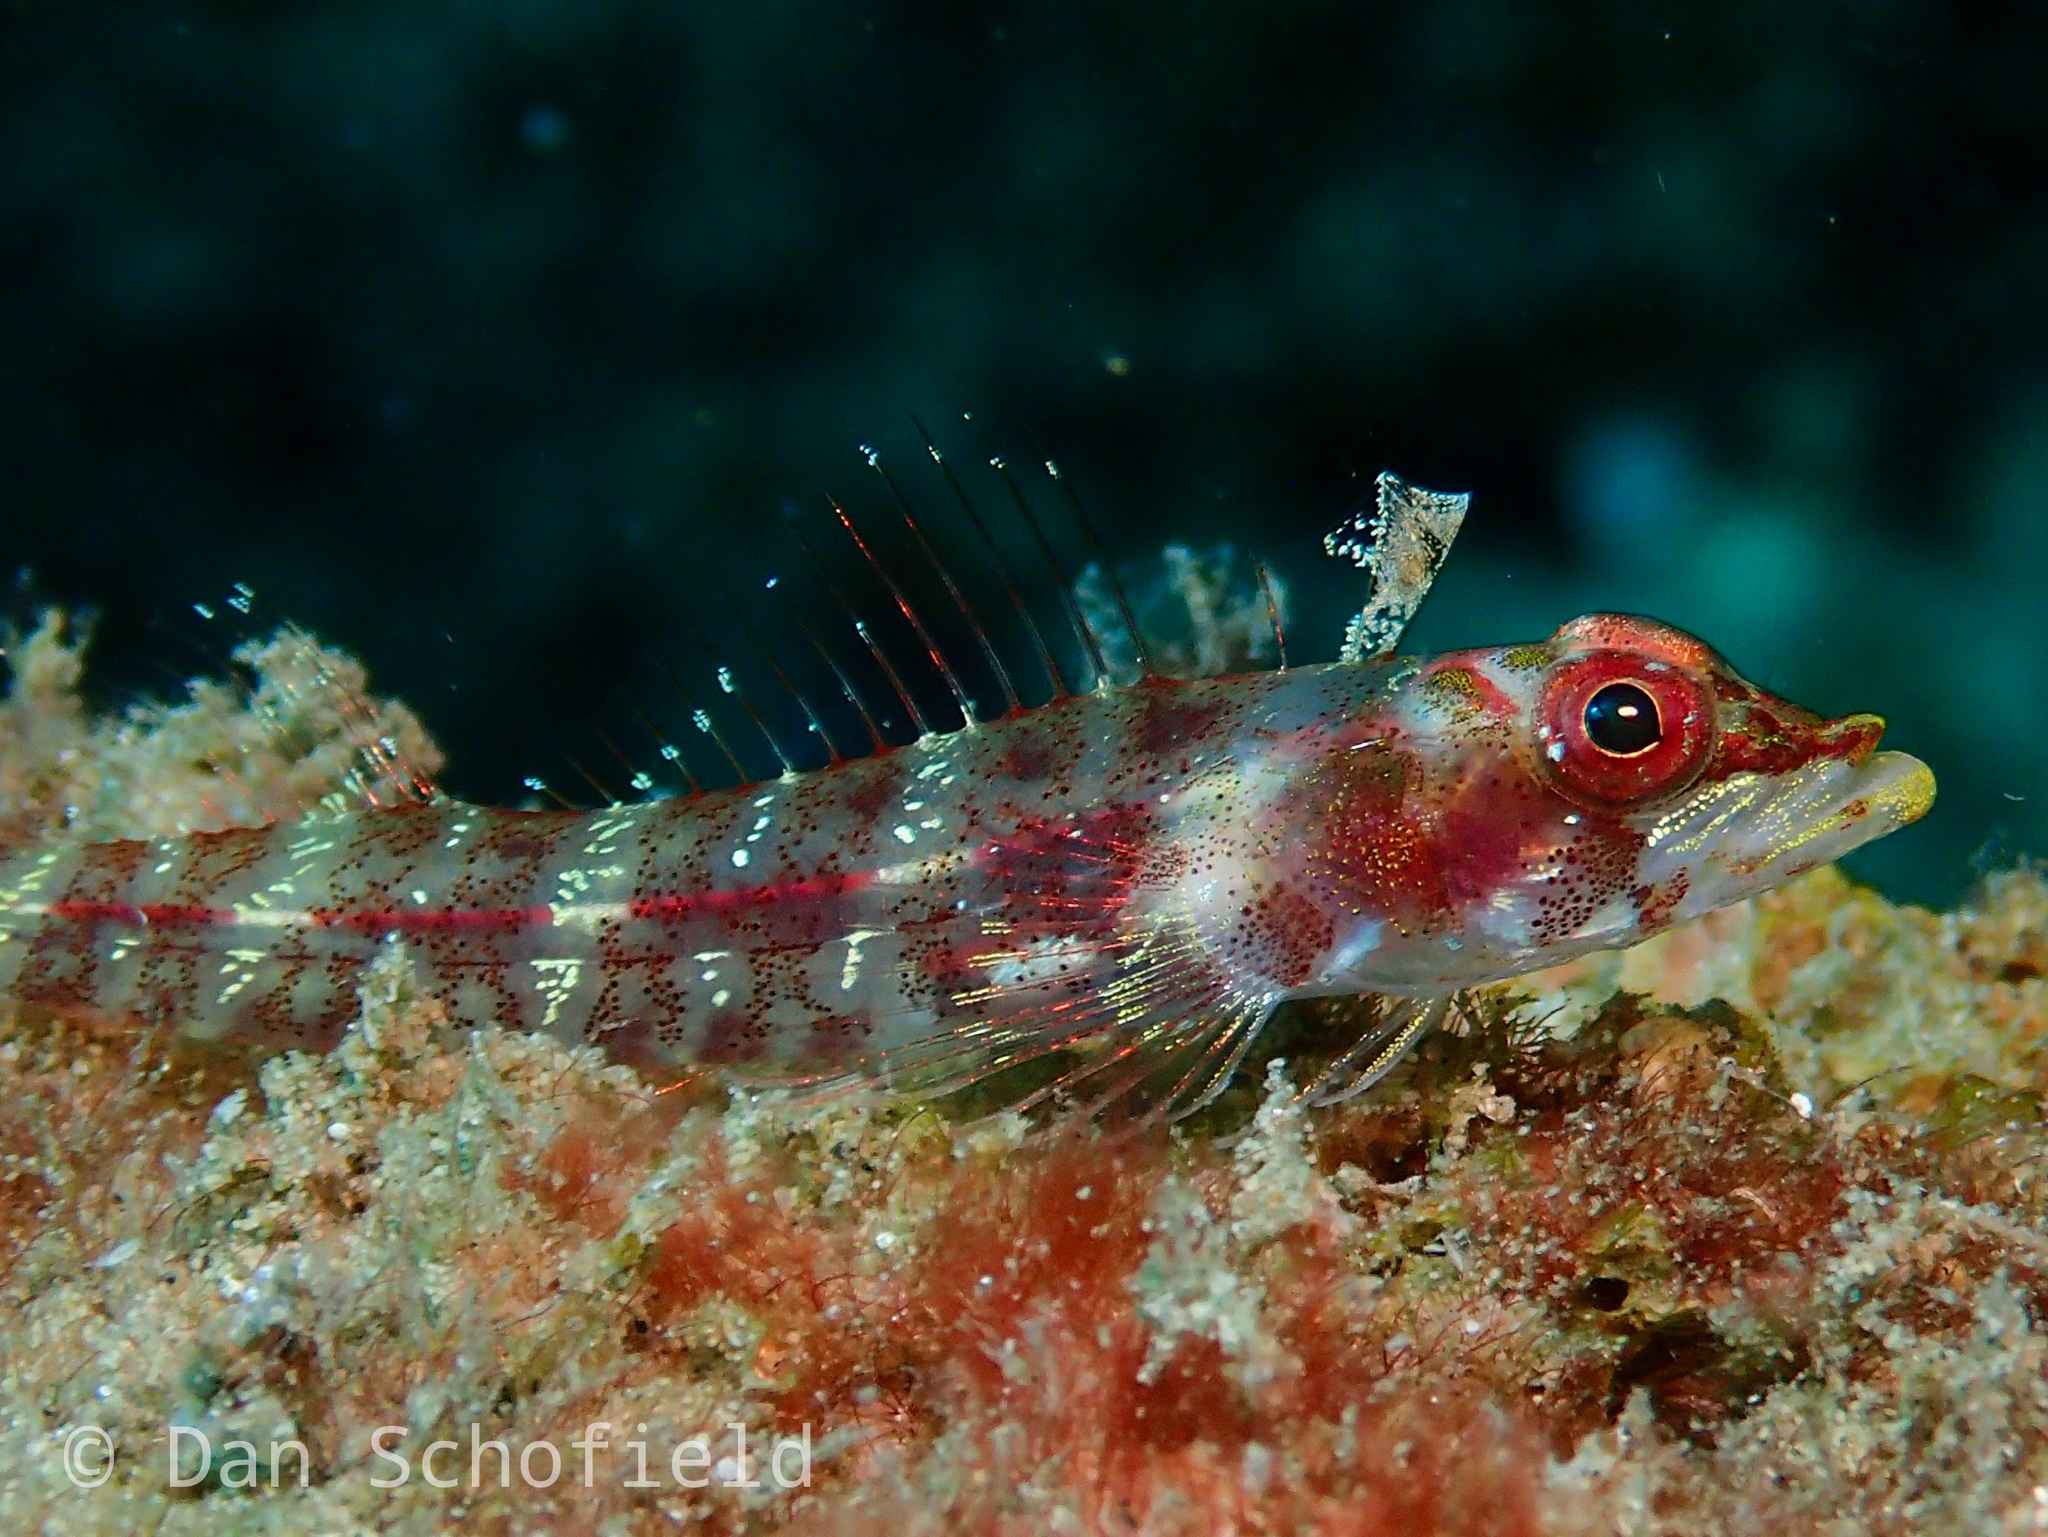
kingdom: Animalia
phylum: Chordata
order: Perciformes
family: Tripterygiidae
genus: Ucla
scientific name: Ucla xenogrammus
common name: Largemouth triplefin
